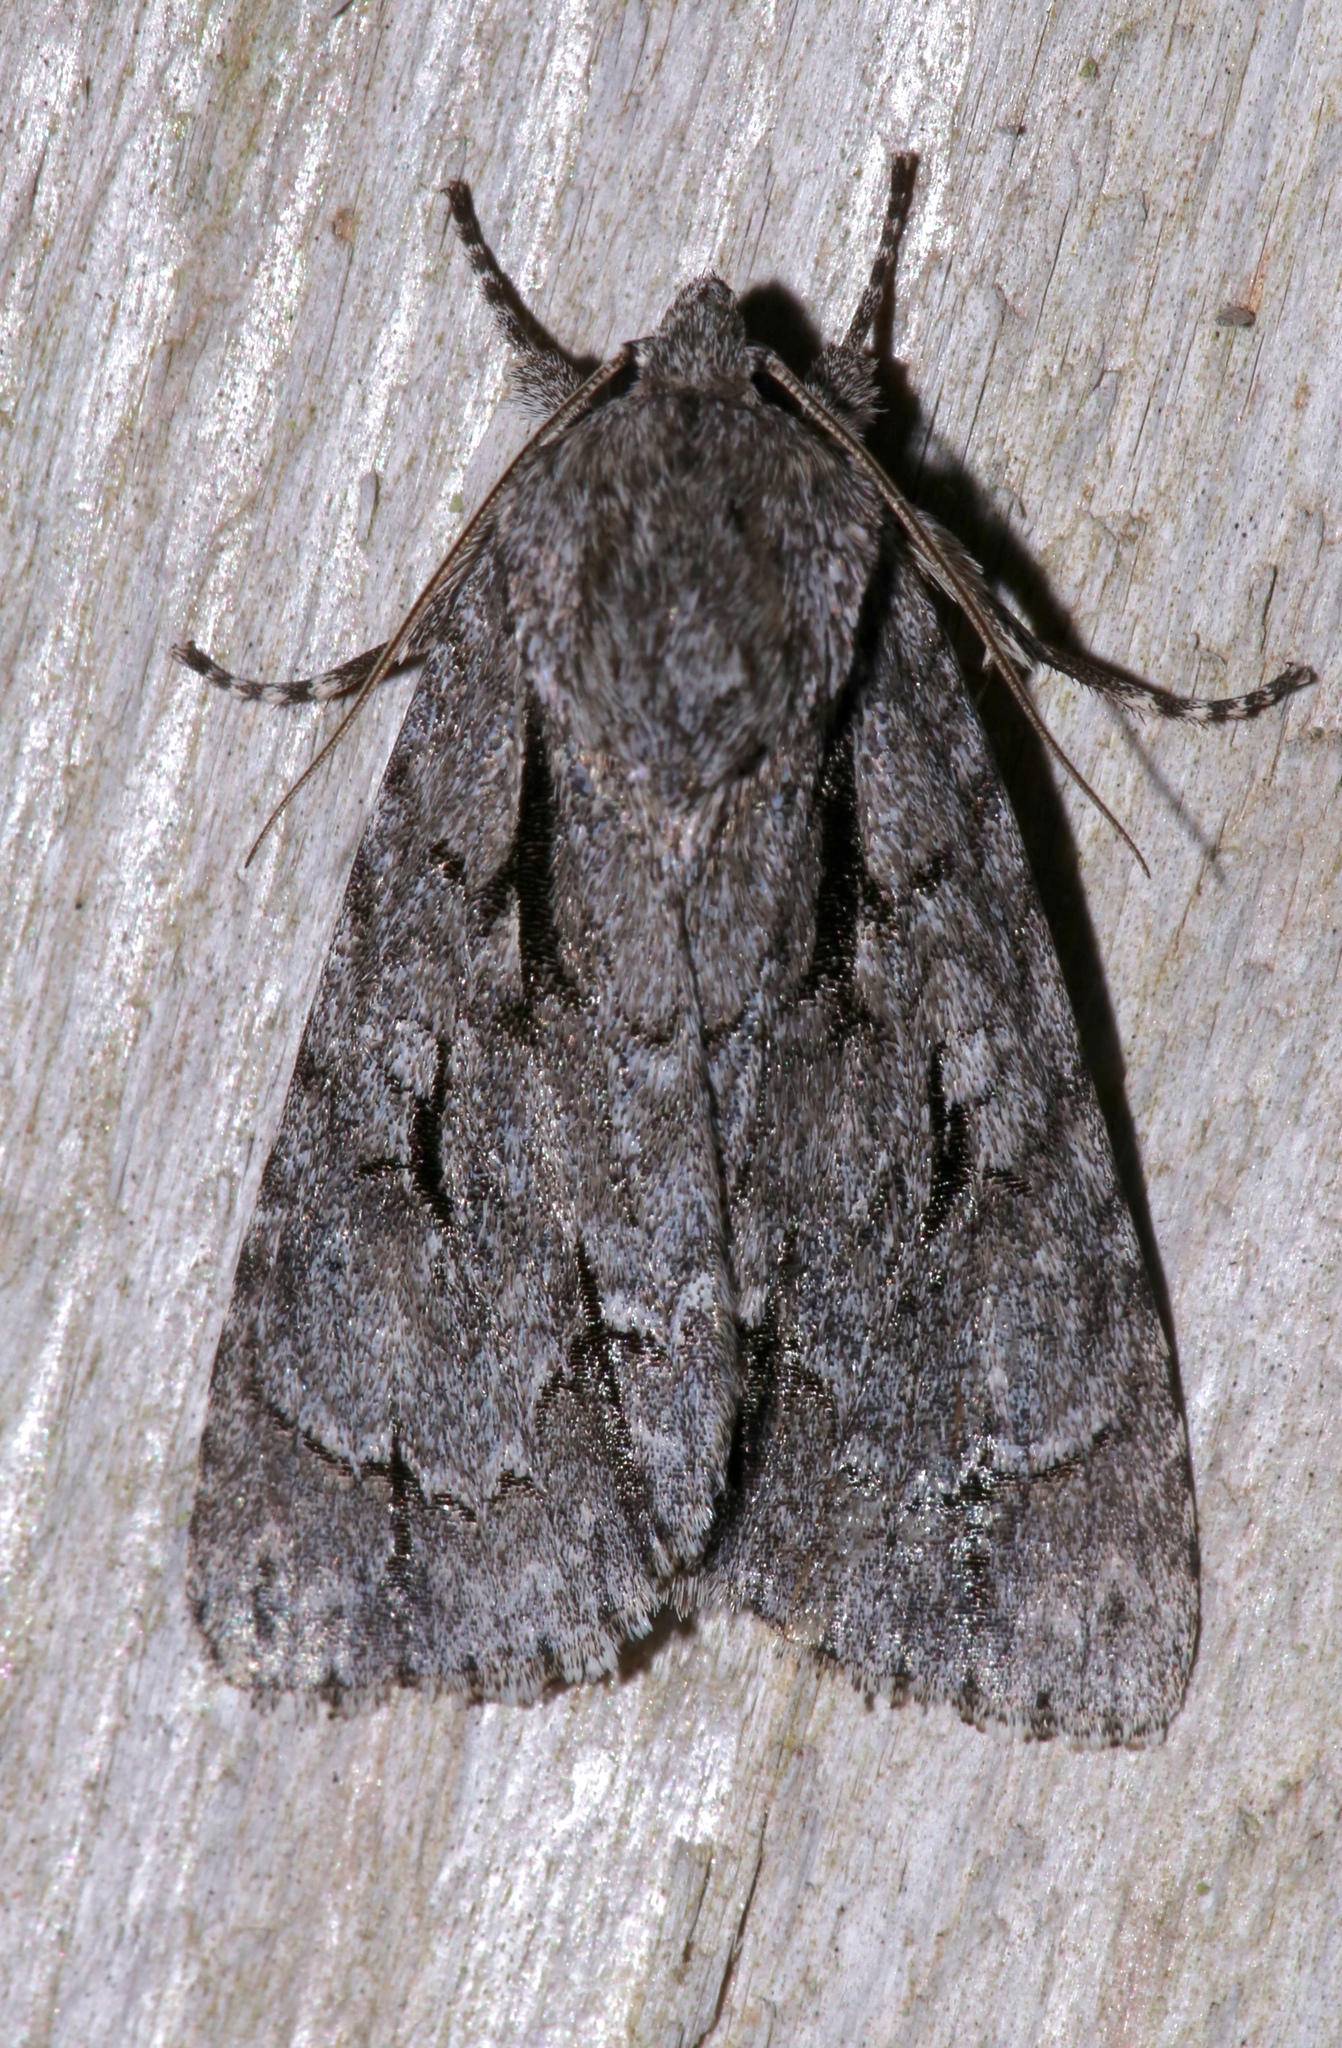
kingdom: Animalia
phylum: Arthropoda
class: Insecta
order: Lepidoptera
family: Noctuidae
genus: Acronicta
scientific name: Acronicta hasta
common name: Cherry dagger
